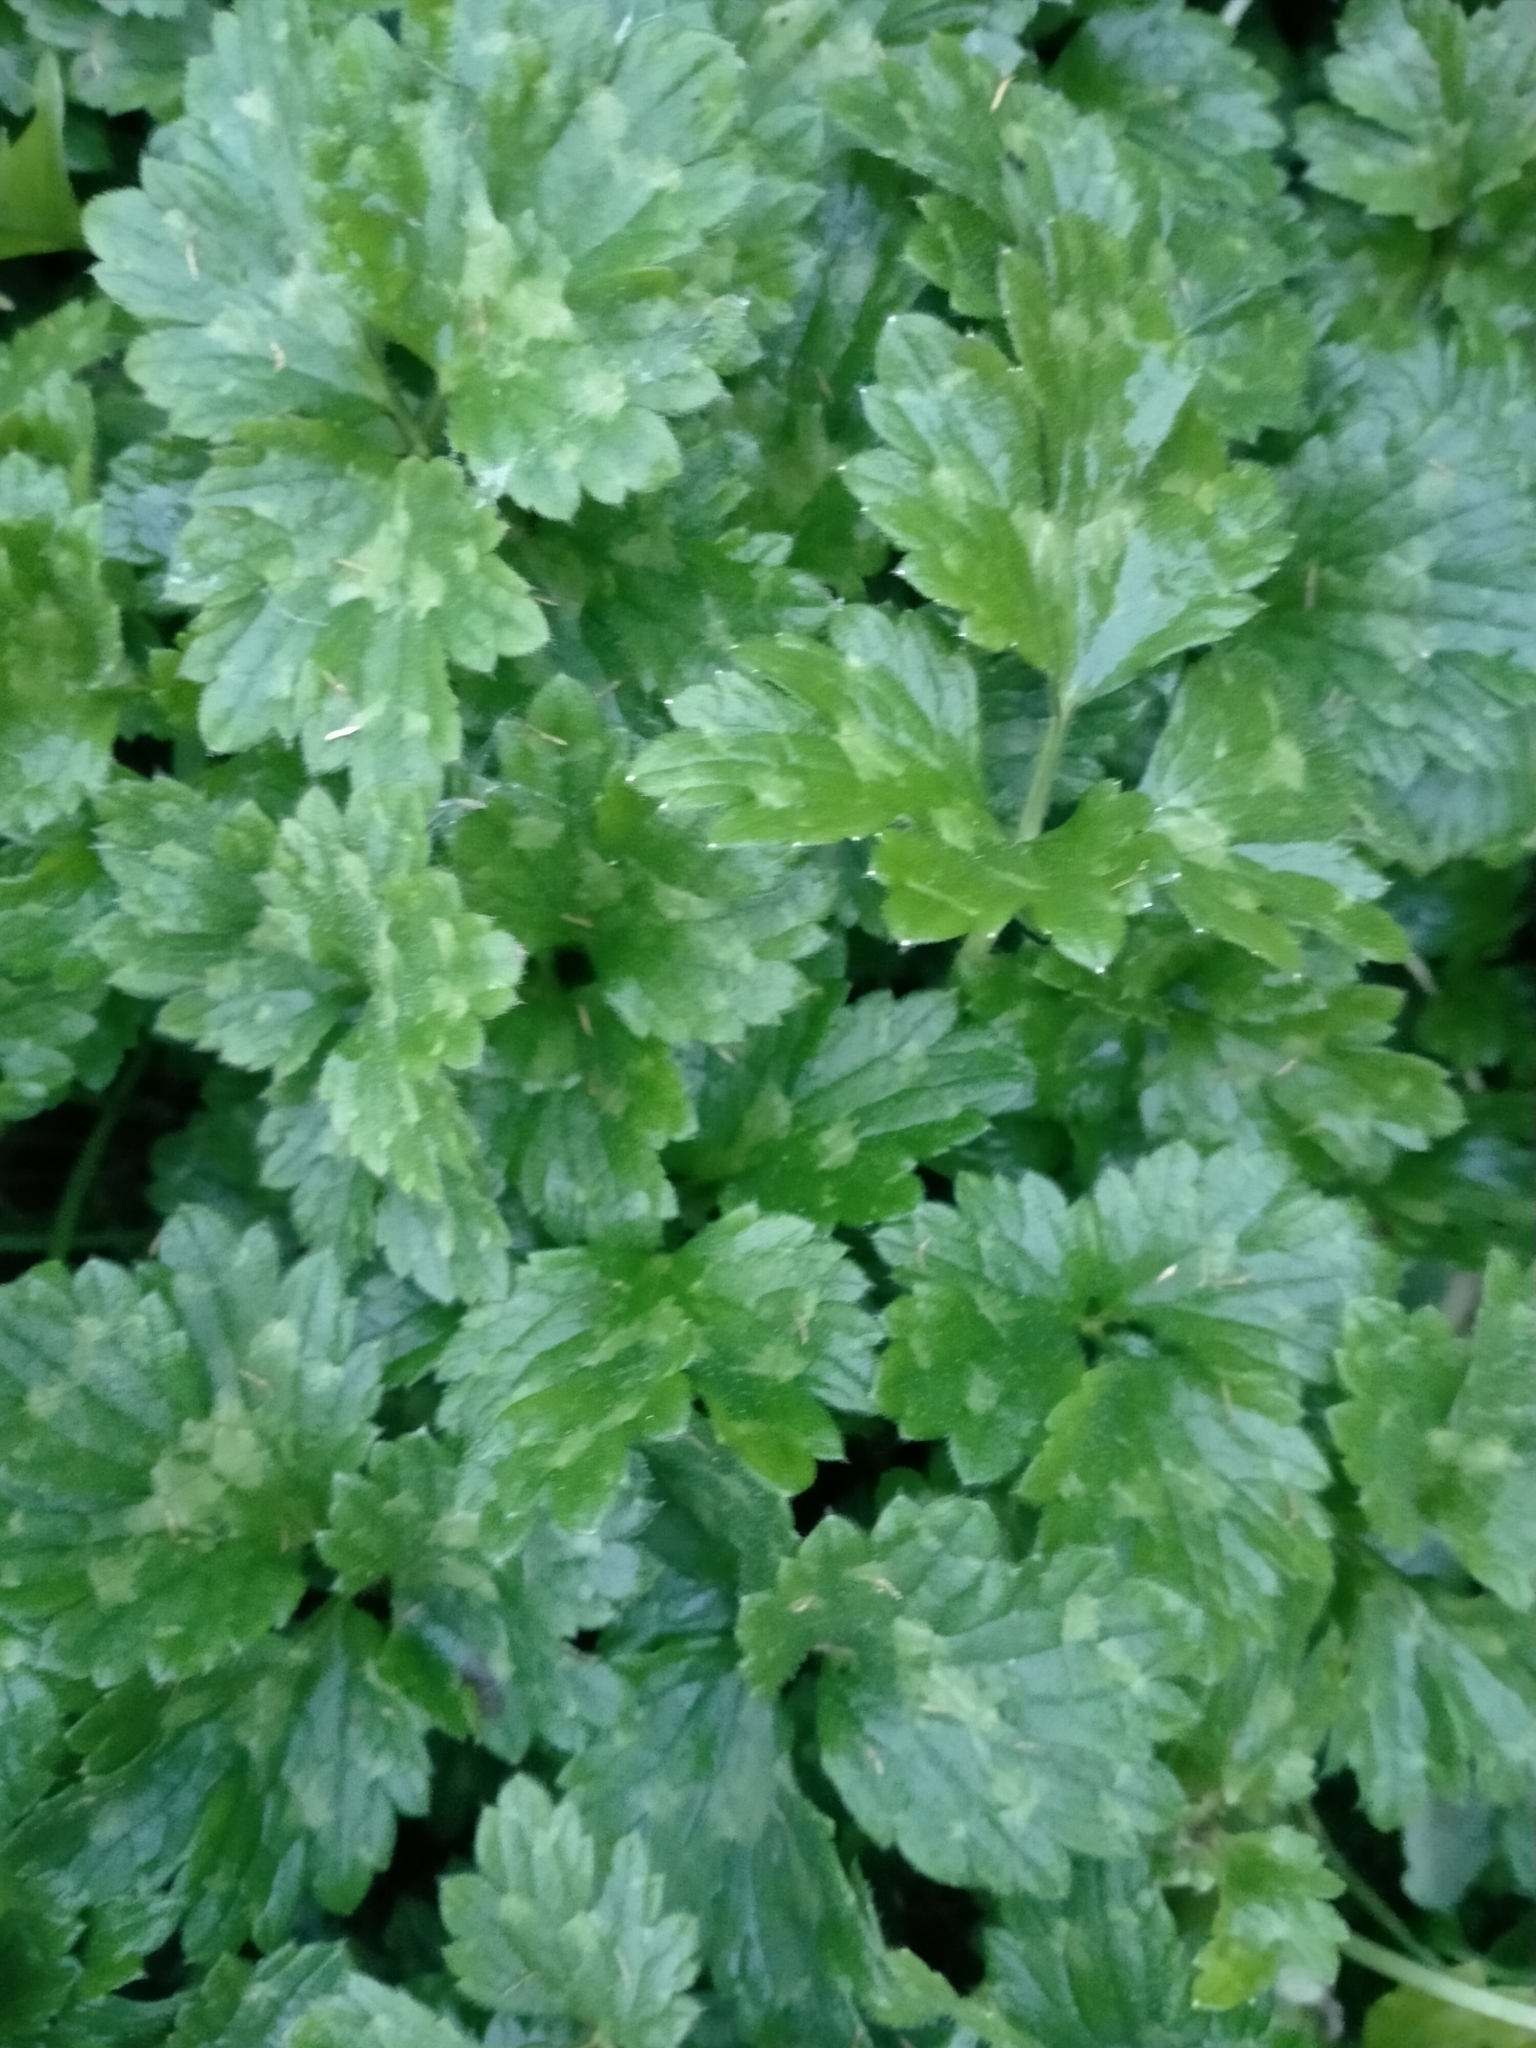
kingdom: Plantae
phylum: Tracheophyta
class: Magnoliopsida
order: Ranunculales
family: Ranunculaceae
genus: Ranunculus
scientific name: Ranunculus repens
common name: Creeping buttercup
